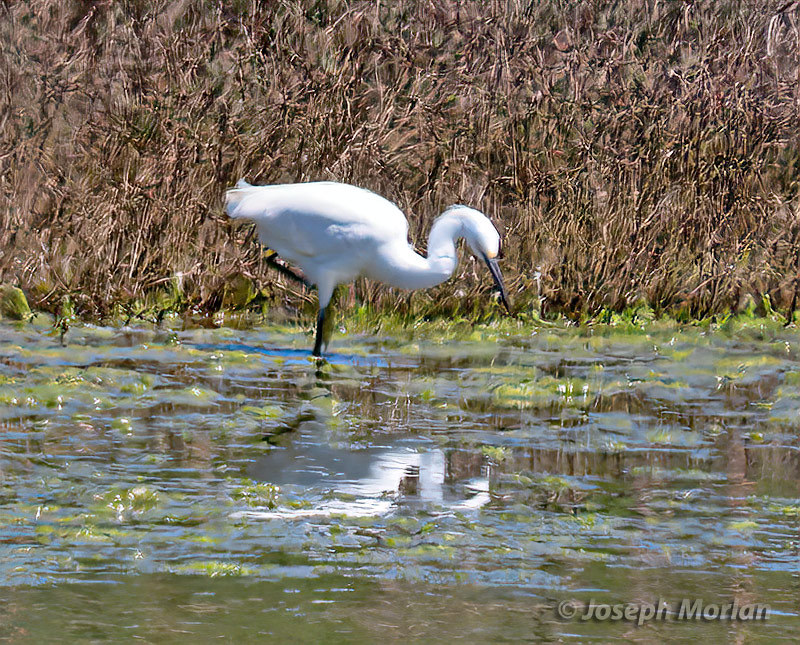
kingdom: Animalia
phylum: Chordata
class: Aves
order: Pelecaniformes
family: Ardeidae
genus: Egretta
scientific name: Egretta thula
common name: Snowy egret
